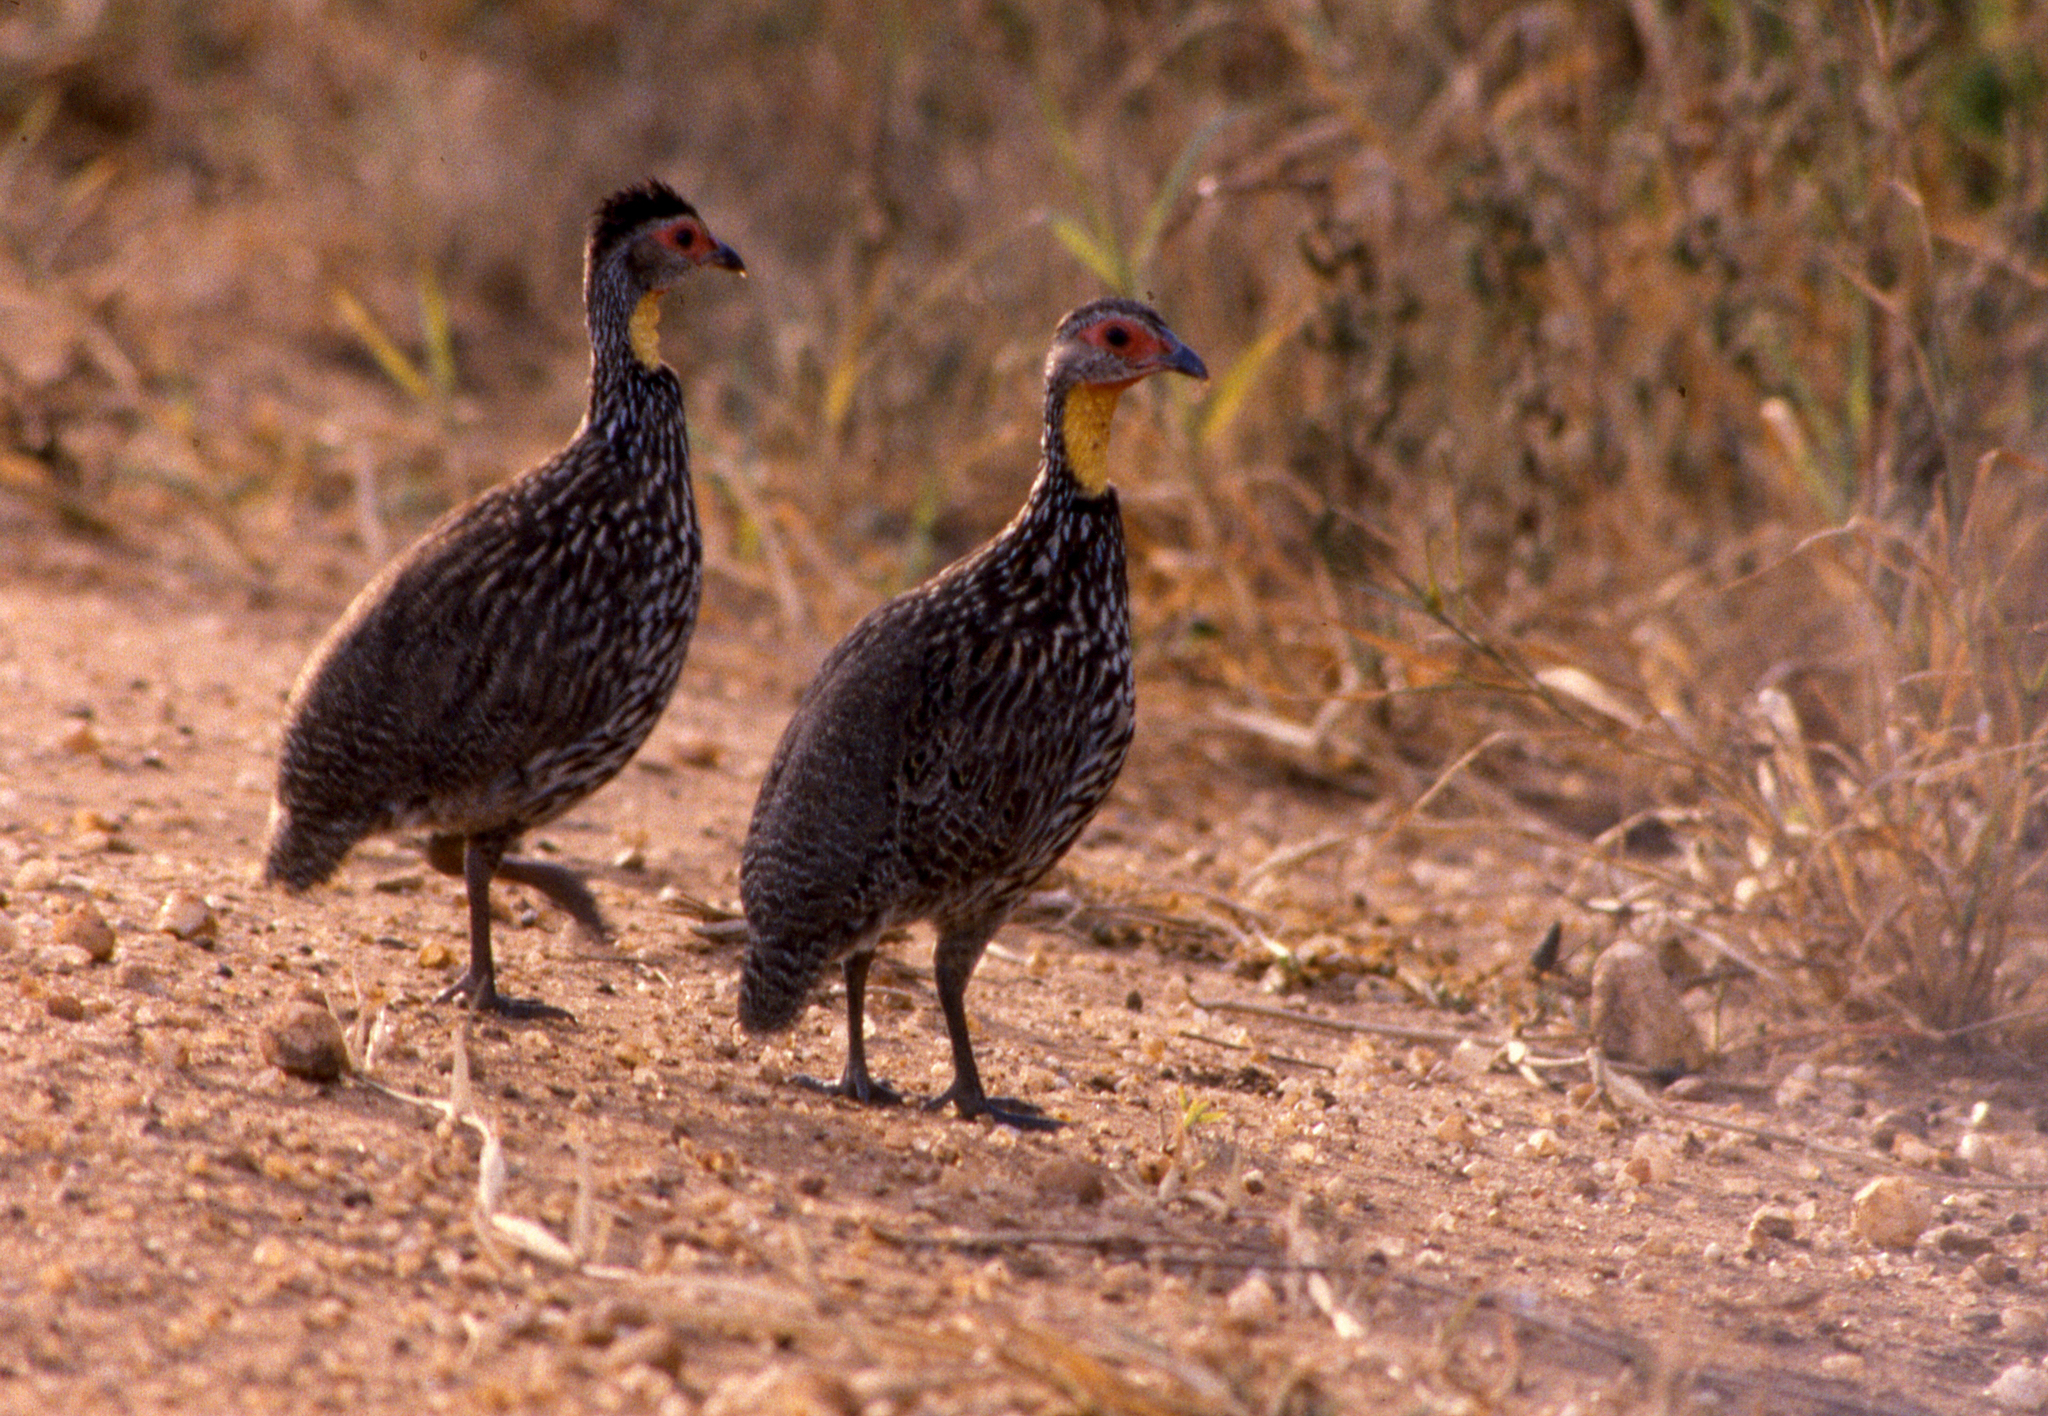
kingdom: Animalia
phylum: Chordata
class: Aves
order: Galliformes
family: Phasianidae
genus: Pternistis
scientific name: Pternistis leucoscepus
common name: Yellow-necked spurfowl
